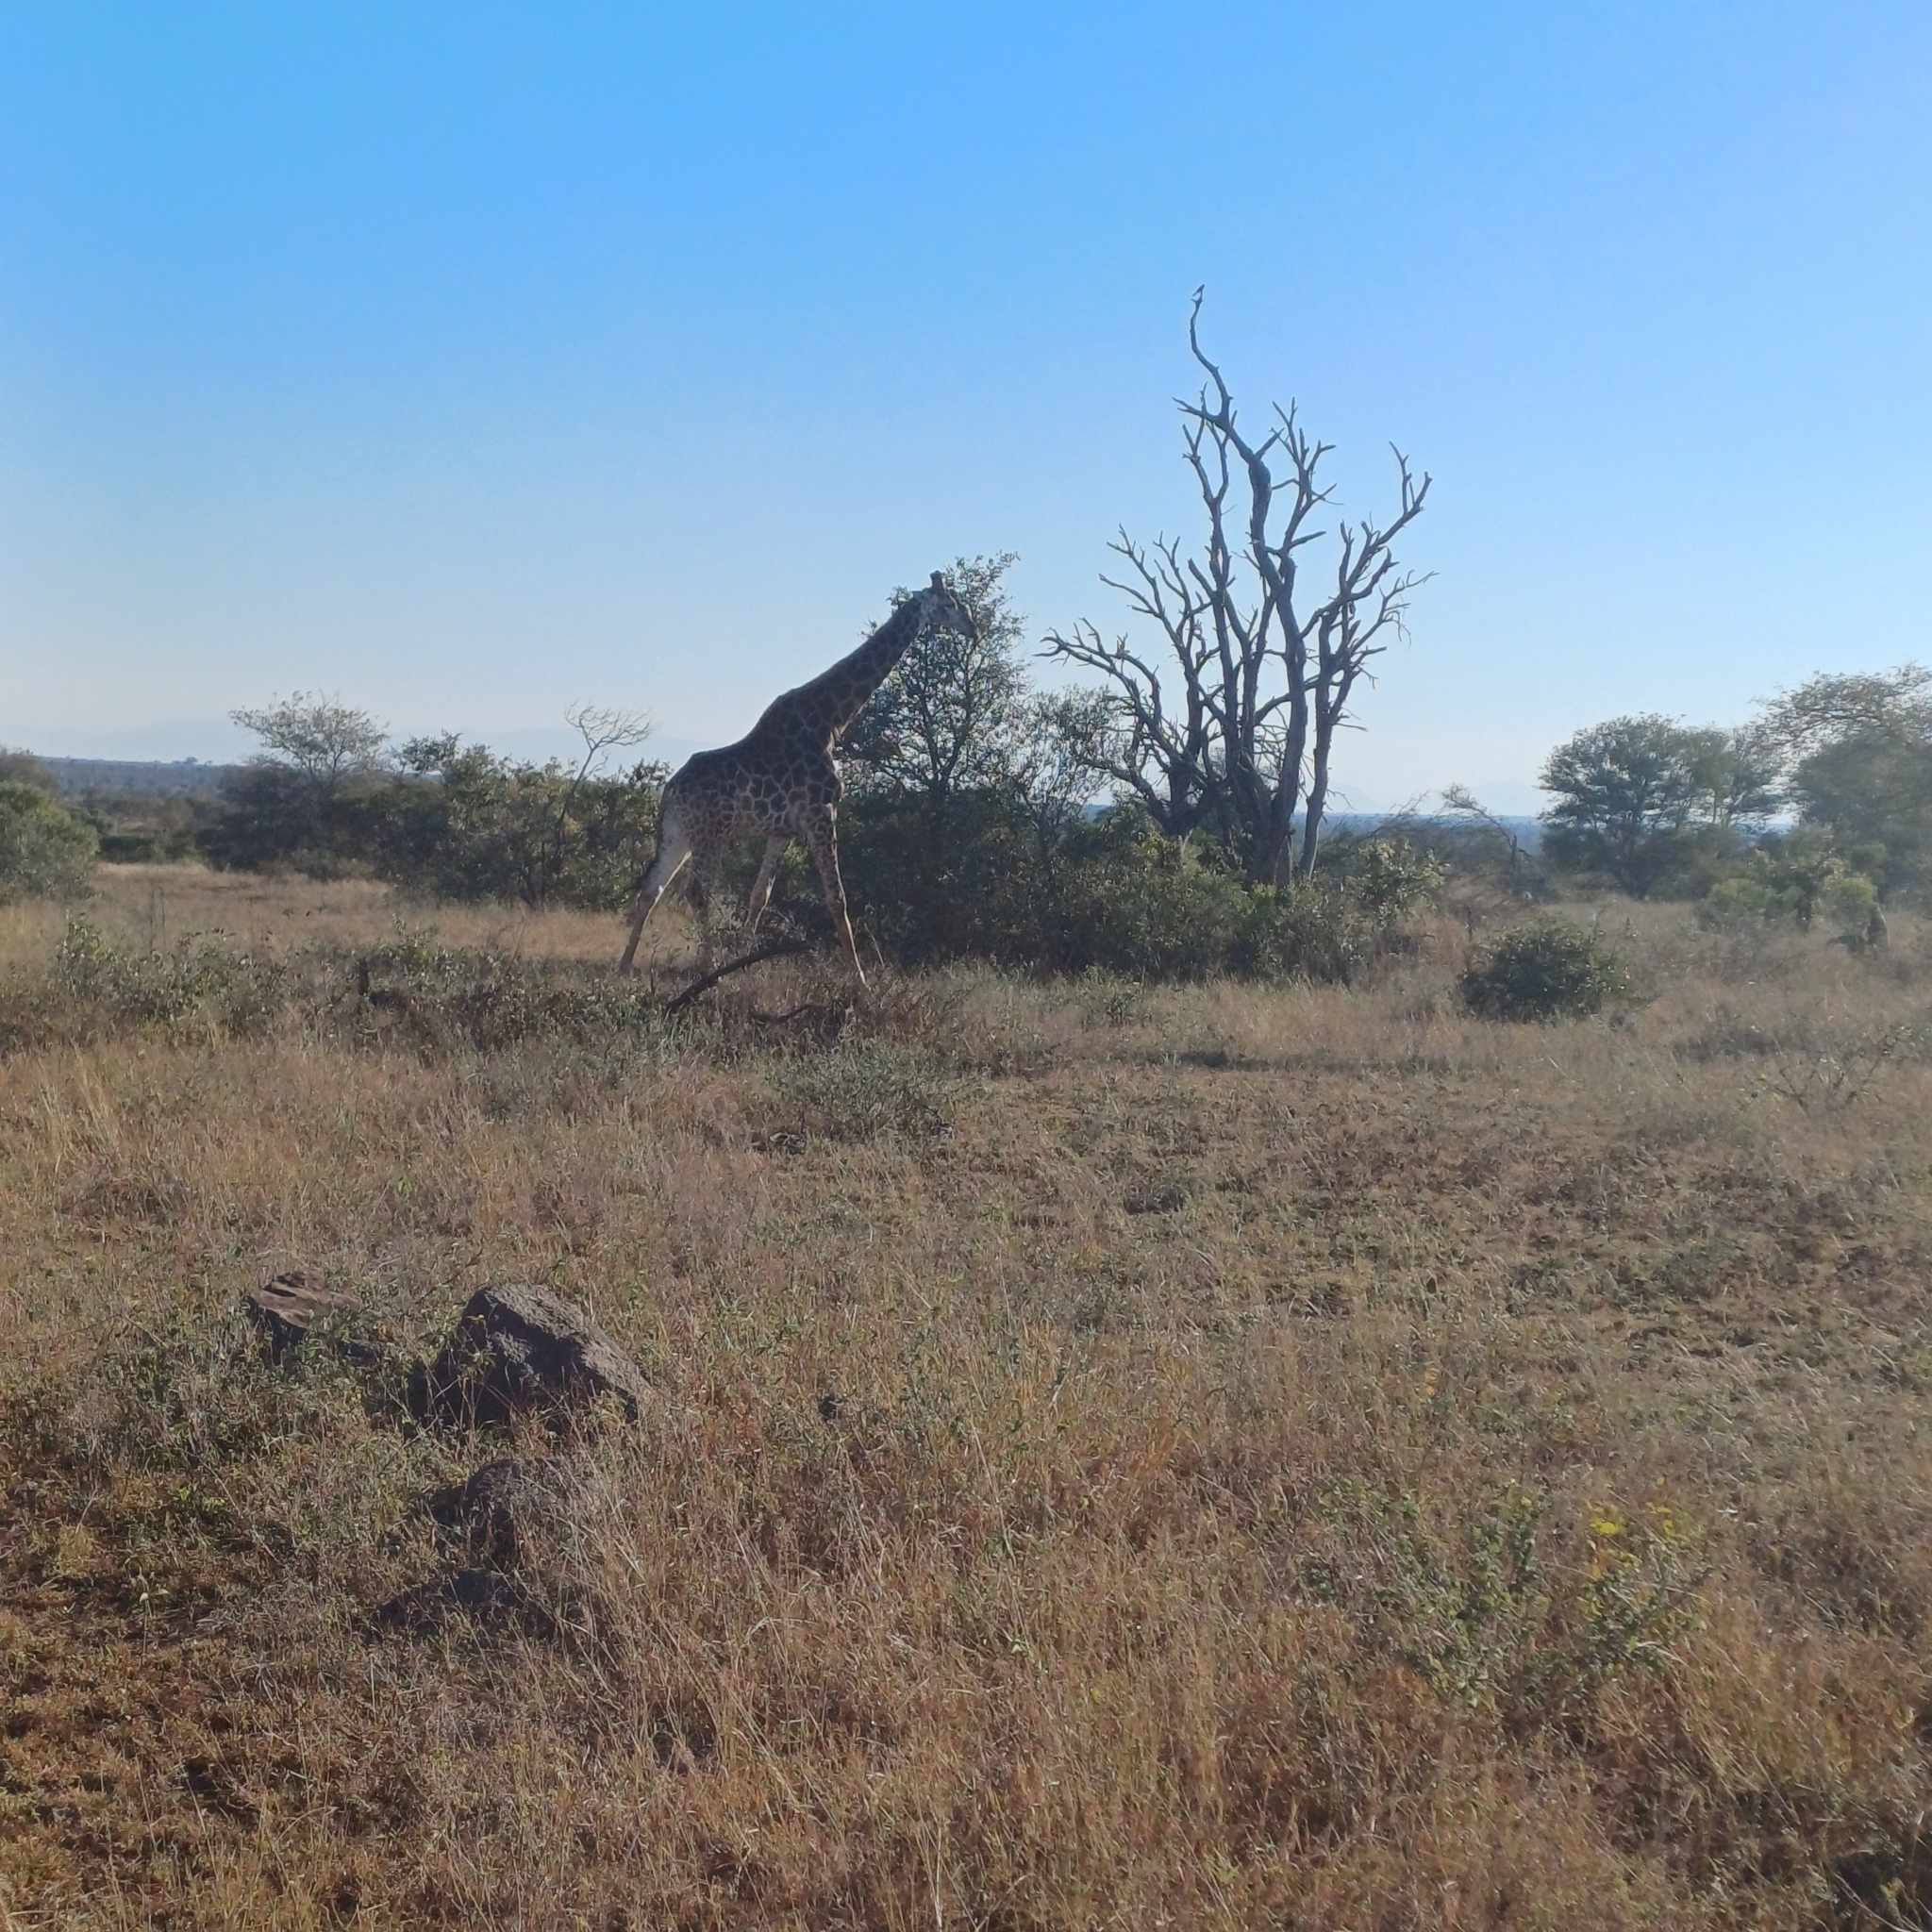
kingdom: Animalia
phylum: Chordata
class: Mammalia
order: Artiodactyla
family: Giraffidae
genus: Giraffa
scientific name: Giraffa giraffa
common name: Southern giraffe
